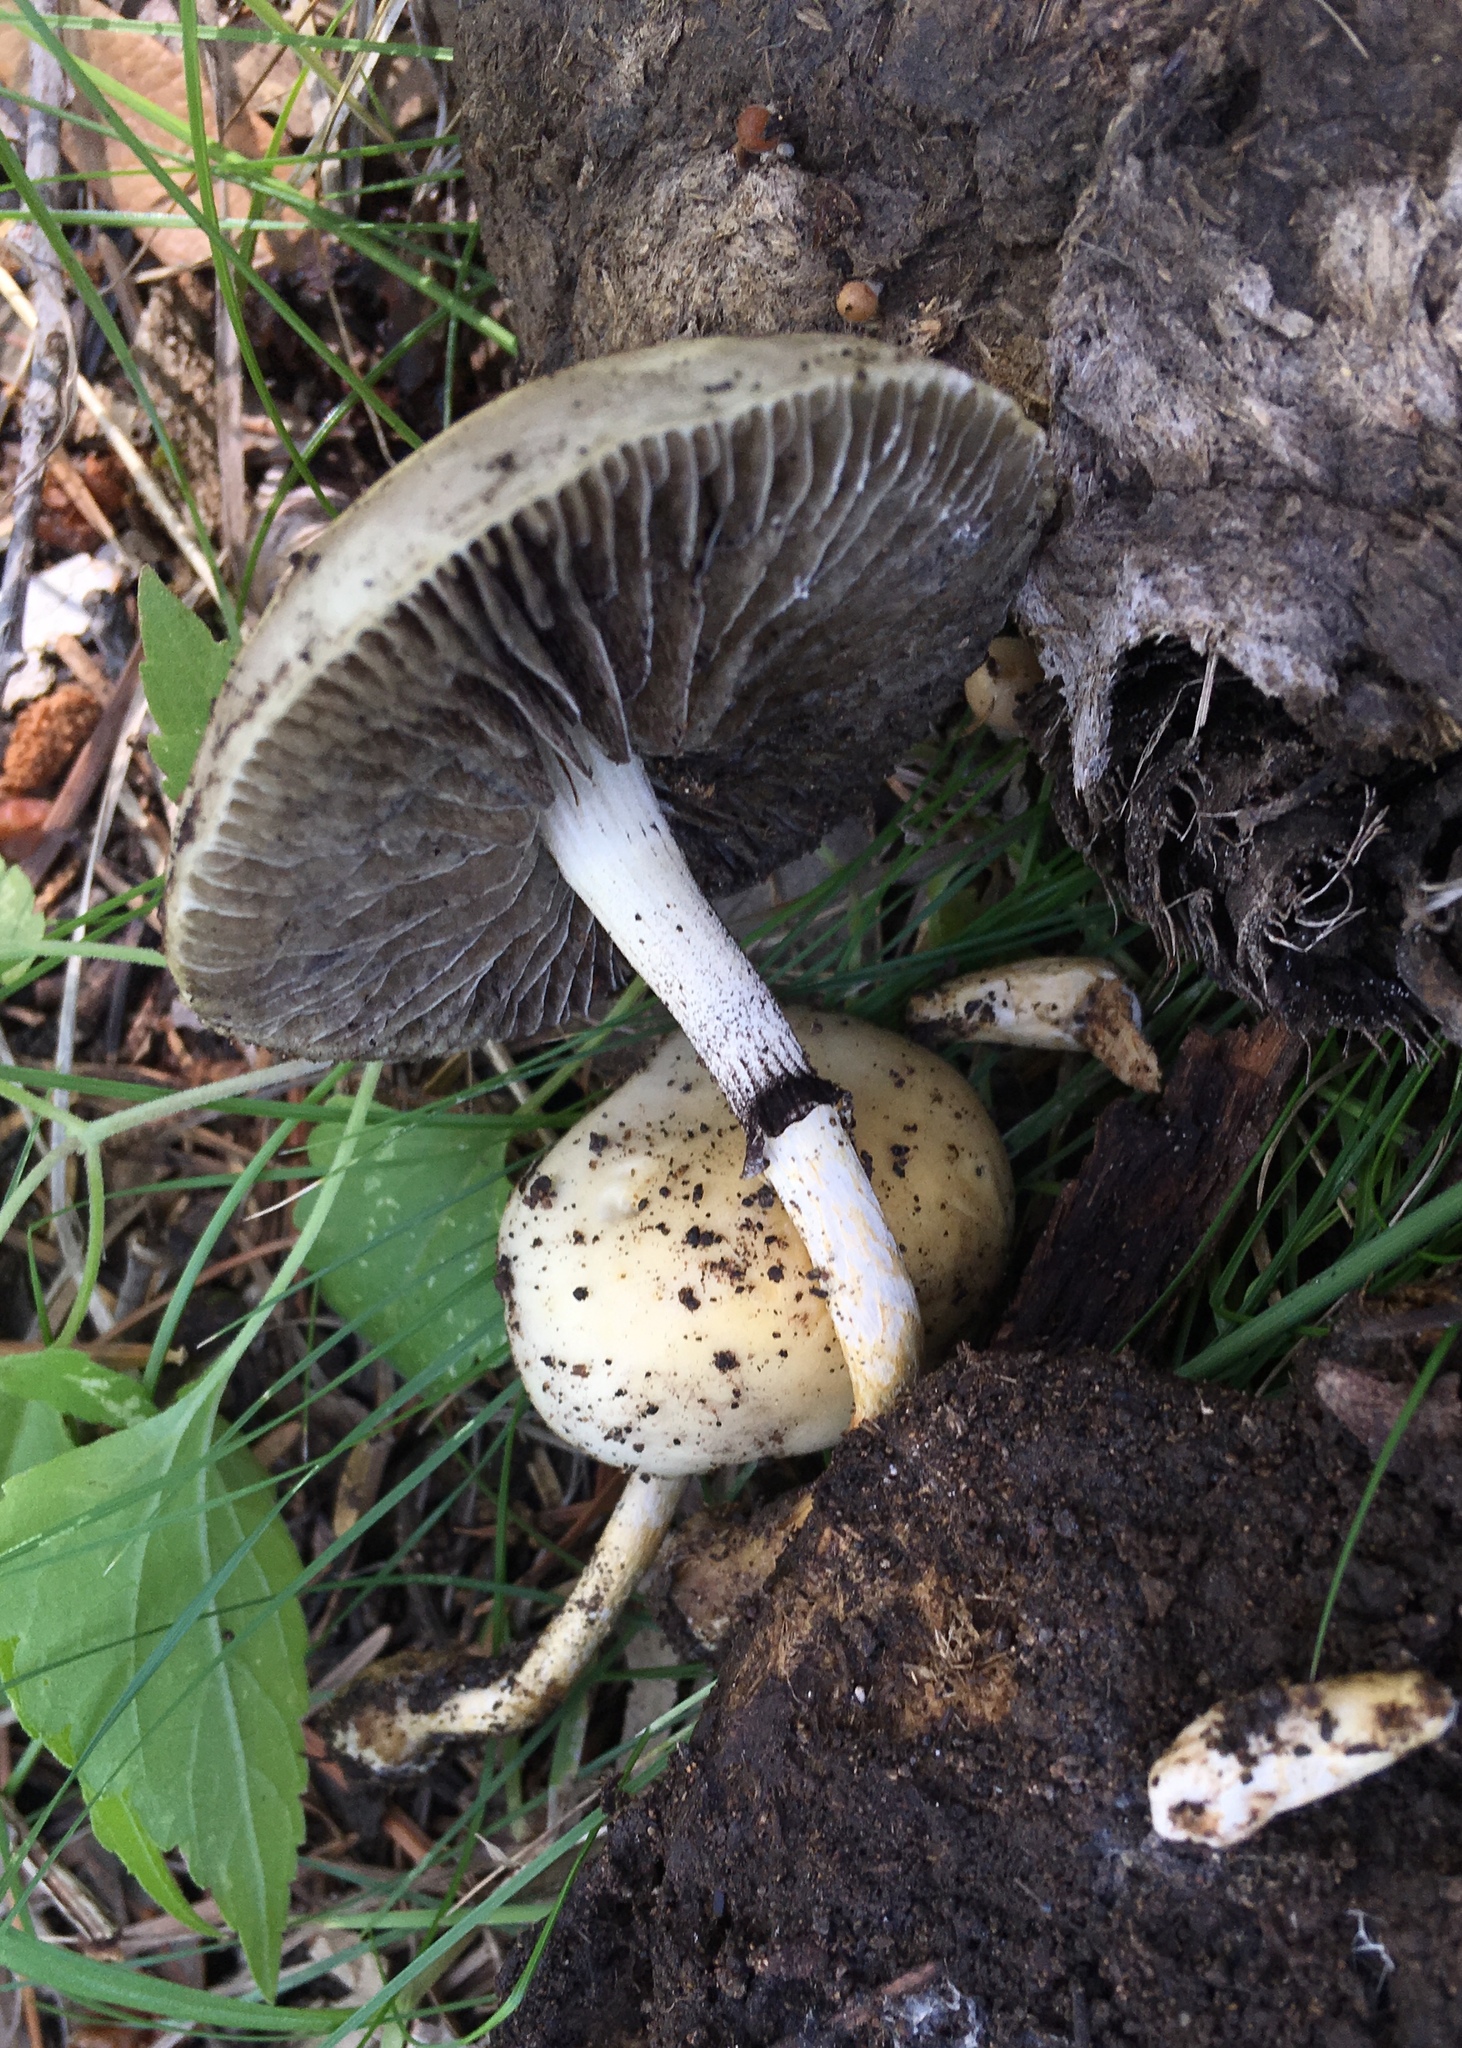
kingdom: Fungi
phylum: Basidiomycota
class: Agaricomycetes
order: Agaricales
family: Strophariaceae
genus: Protostropharia
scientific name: Protostropharia semiglobata
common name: Dung roundhead
